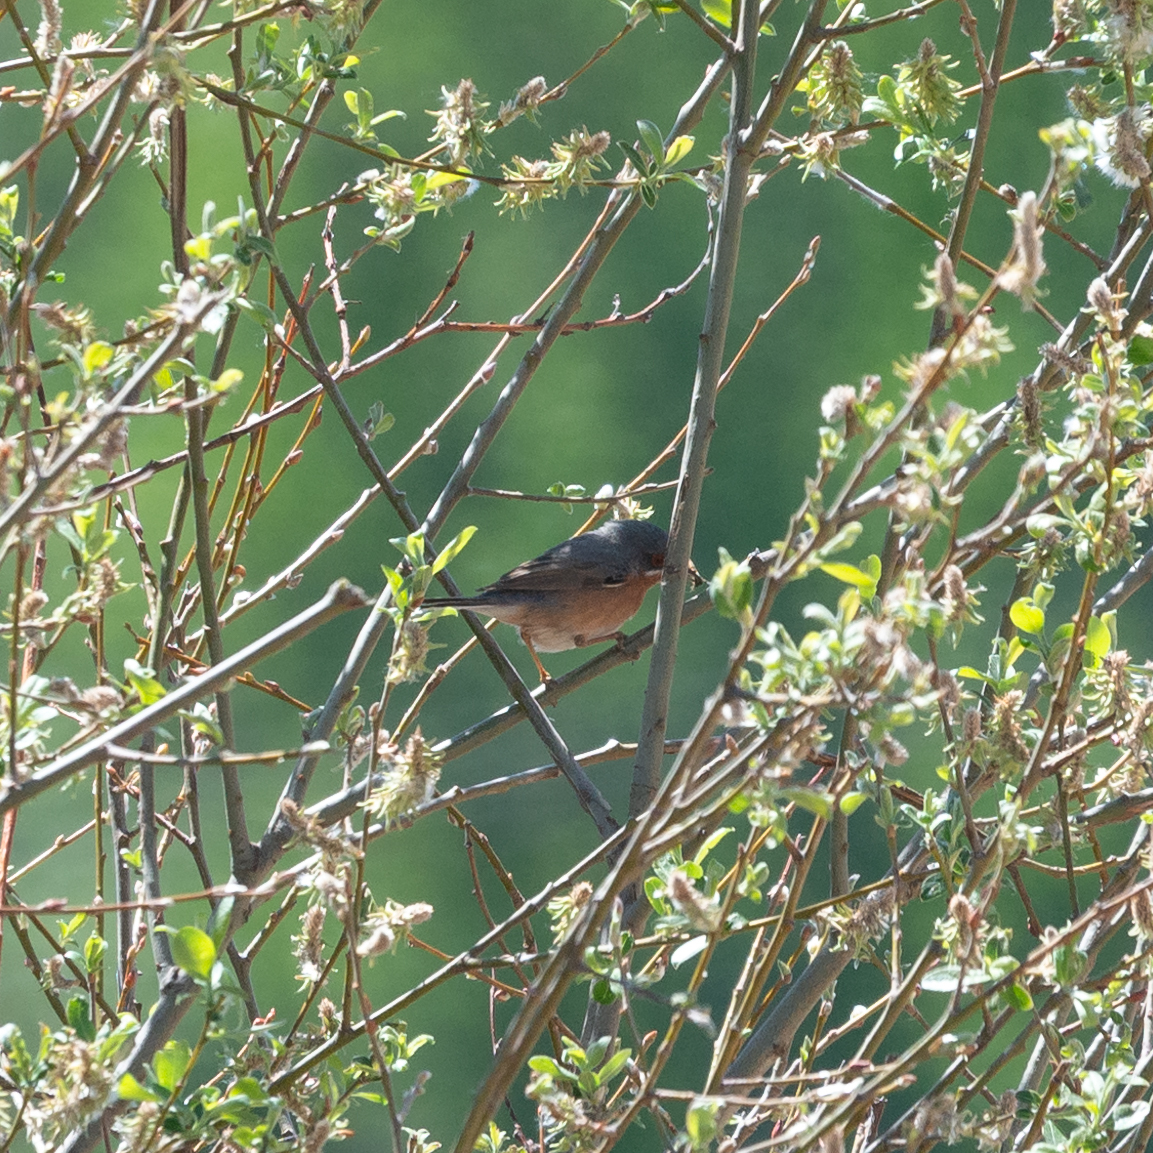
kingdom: Animalia
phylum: Chordata
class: Aves
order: Passeriformes
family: Sylviidae
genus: Curruca
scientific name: Curruca iberiae
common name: Western subalpine warbler
